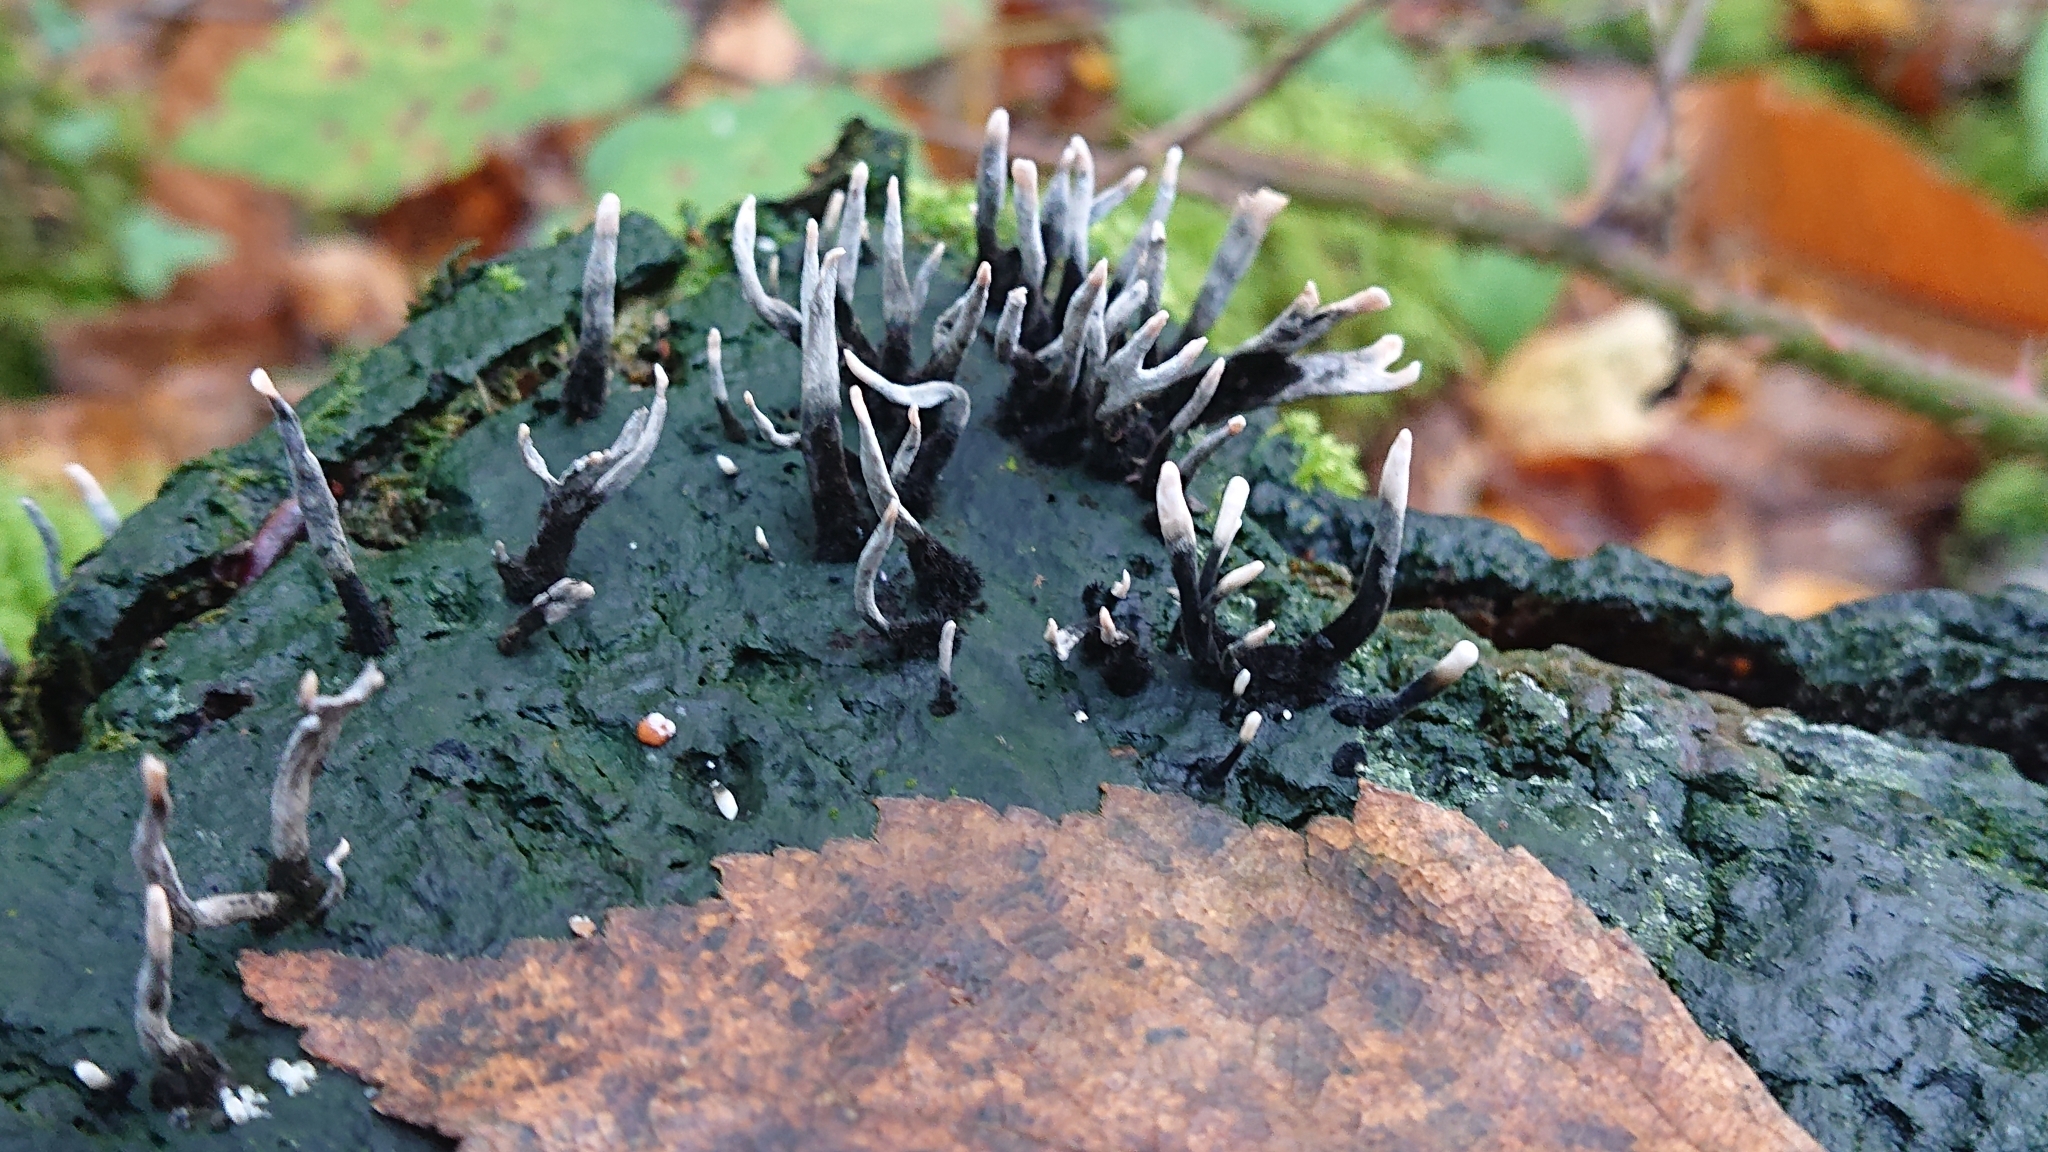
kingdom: Fungi
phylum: Ascomycota
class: Sordariomycetes
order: Xylariales
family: Xylariaceae
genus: Xylaria
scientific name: Xylaria hypoxylon
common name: Candle-snuff fungus
